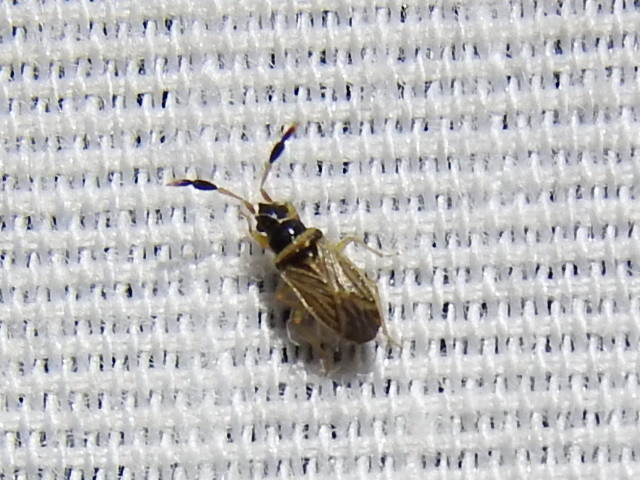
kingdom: Animalia
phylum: Arthropoda
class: Insecta
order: Hemiptera
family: Rhyparochromidae
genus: Ptochiomera
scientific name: Ptochiomera nodosa
